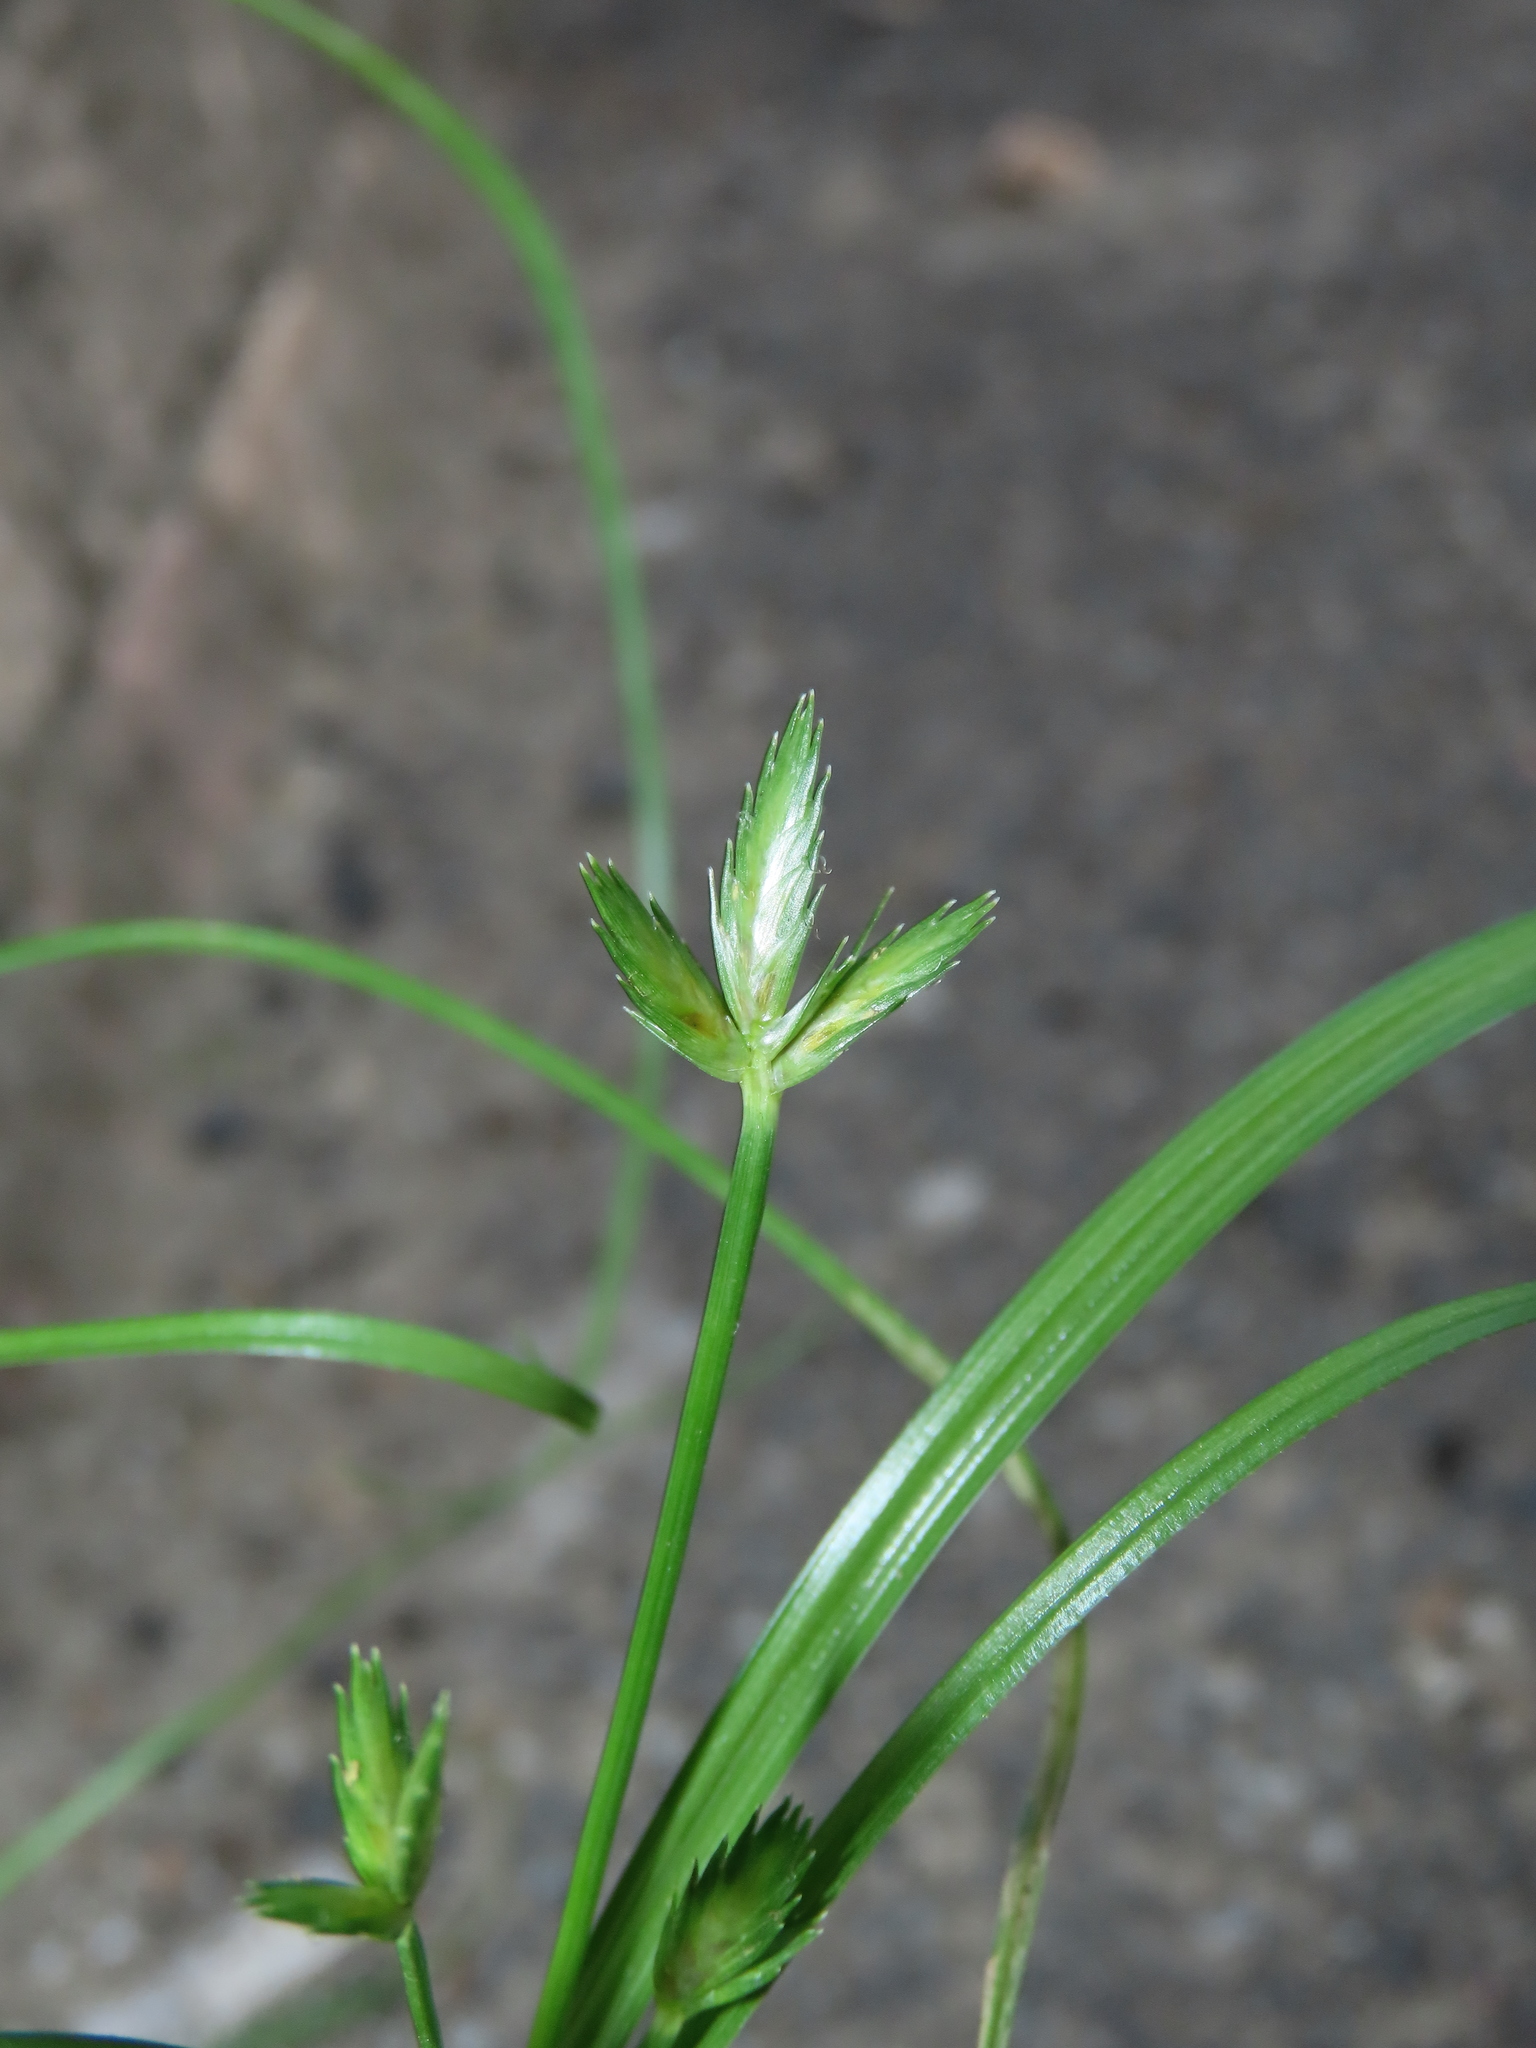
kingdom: Plantae
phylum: Tracheophyta
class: Liliopsida
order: Poales
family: Cyperaceae
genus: Cyperus
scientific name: Cyperus compressus
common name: Poorland flatsedge
